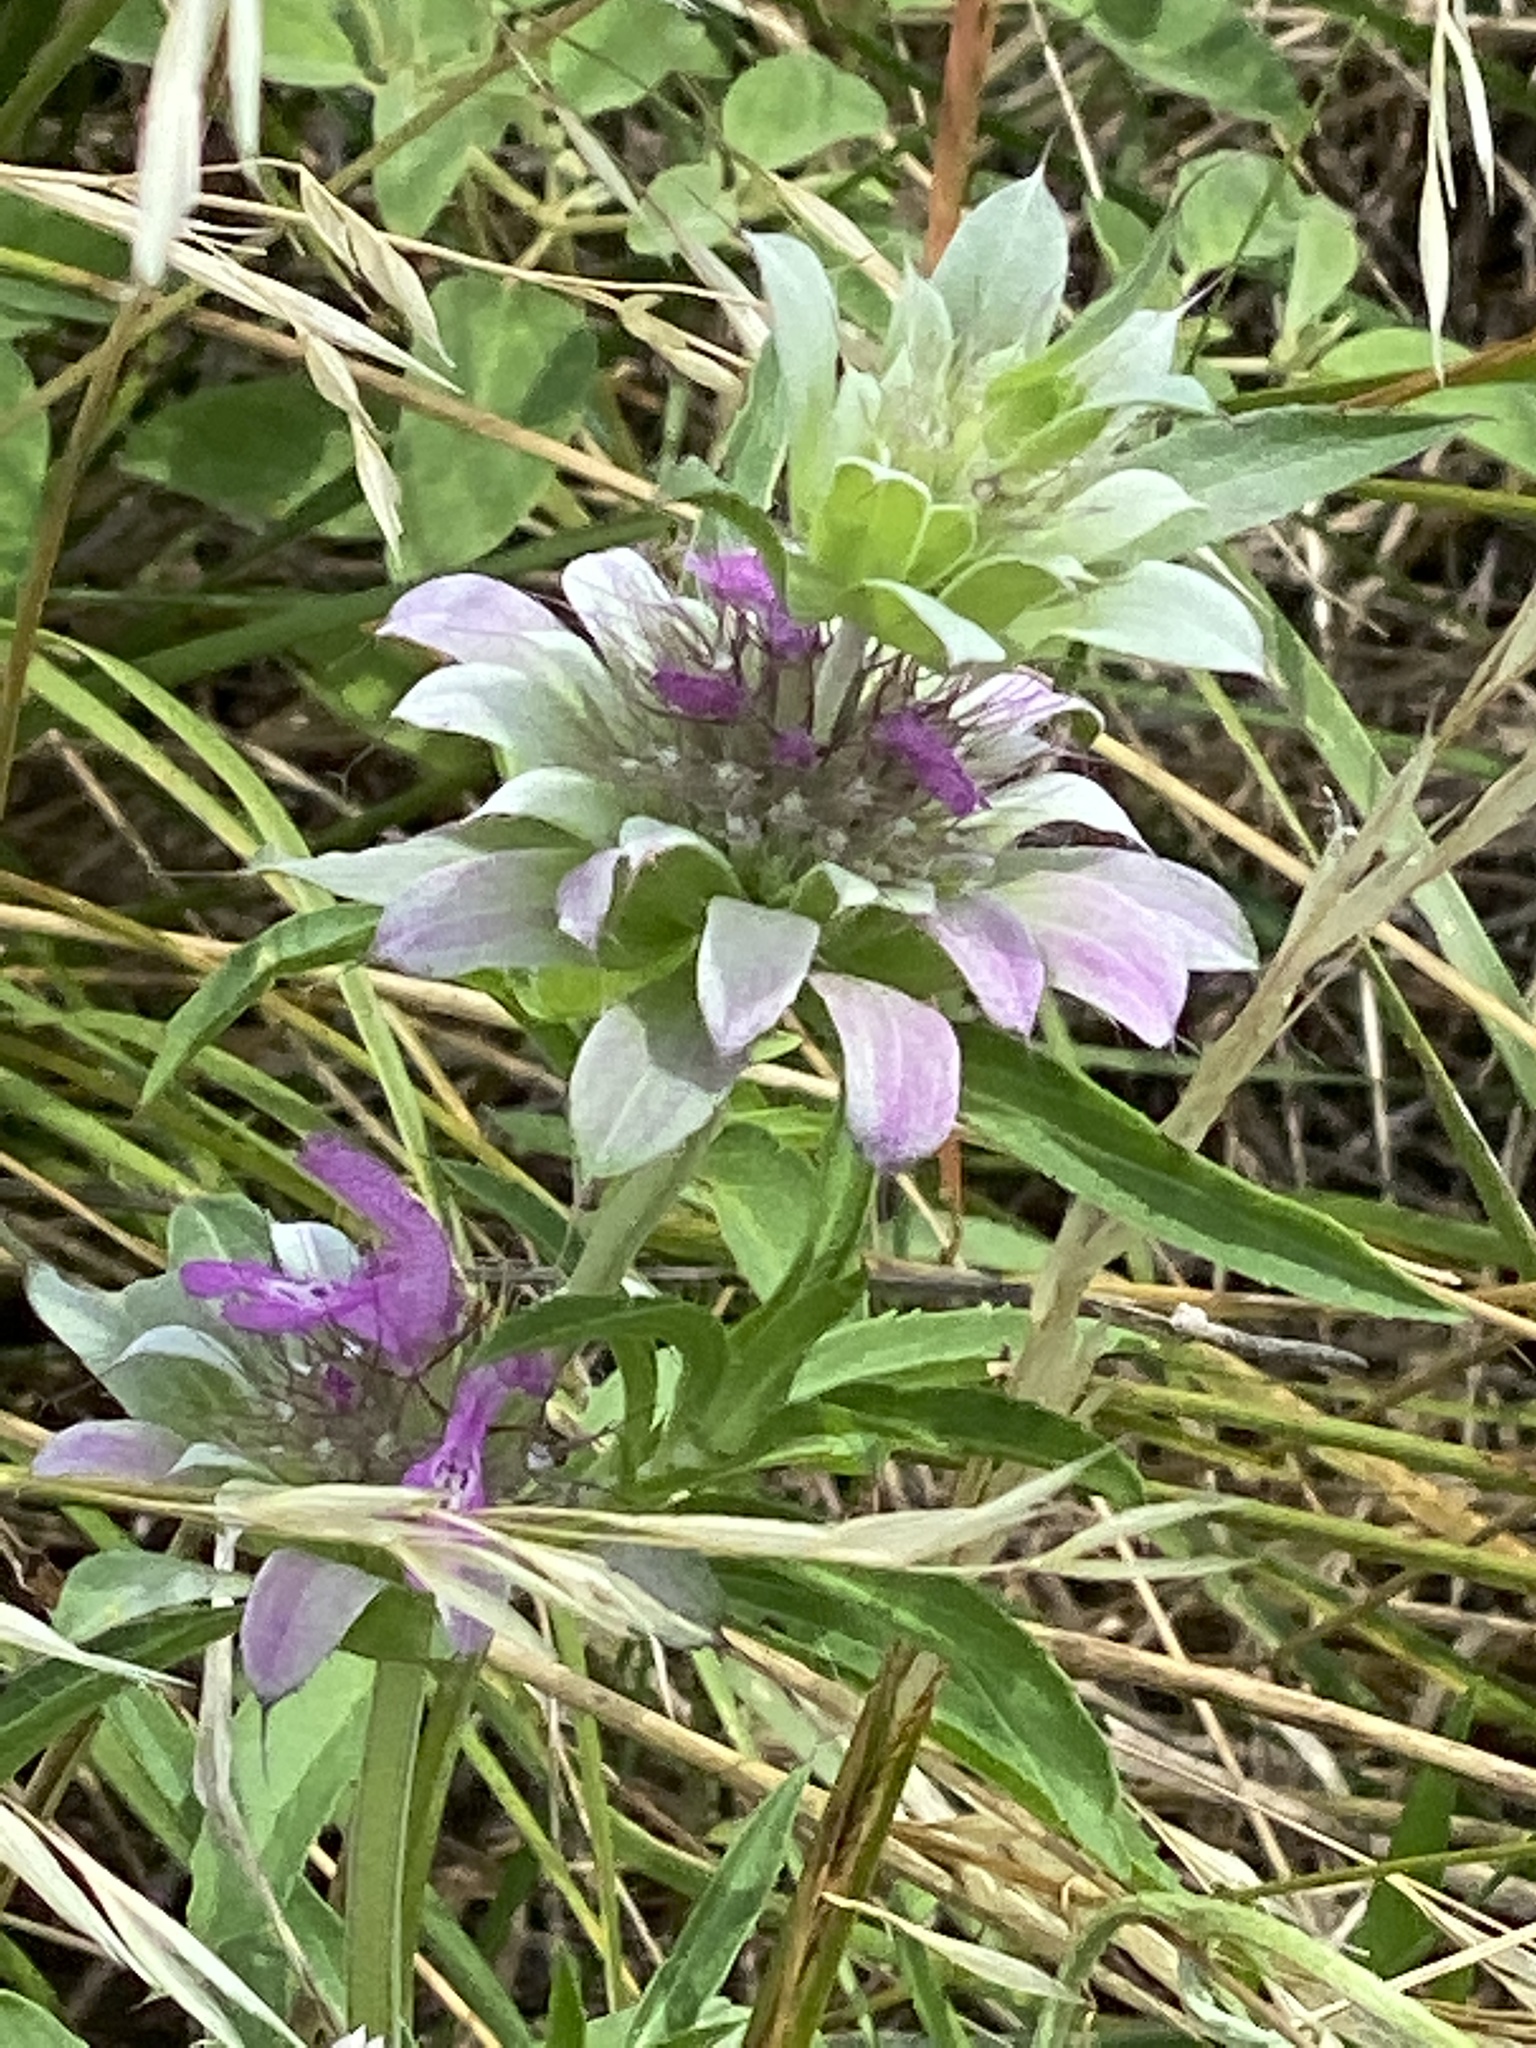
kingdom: Plantae
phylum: Tracheophyta
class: Magnoliopsida
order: Lamiales
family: Lamiaceae
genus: Monarda
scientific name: Monarda citriodora
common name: Lemon beebalm
